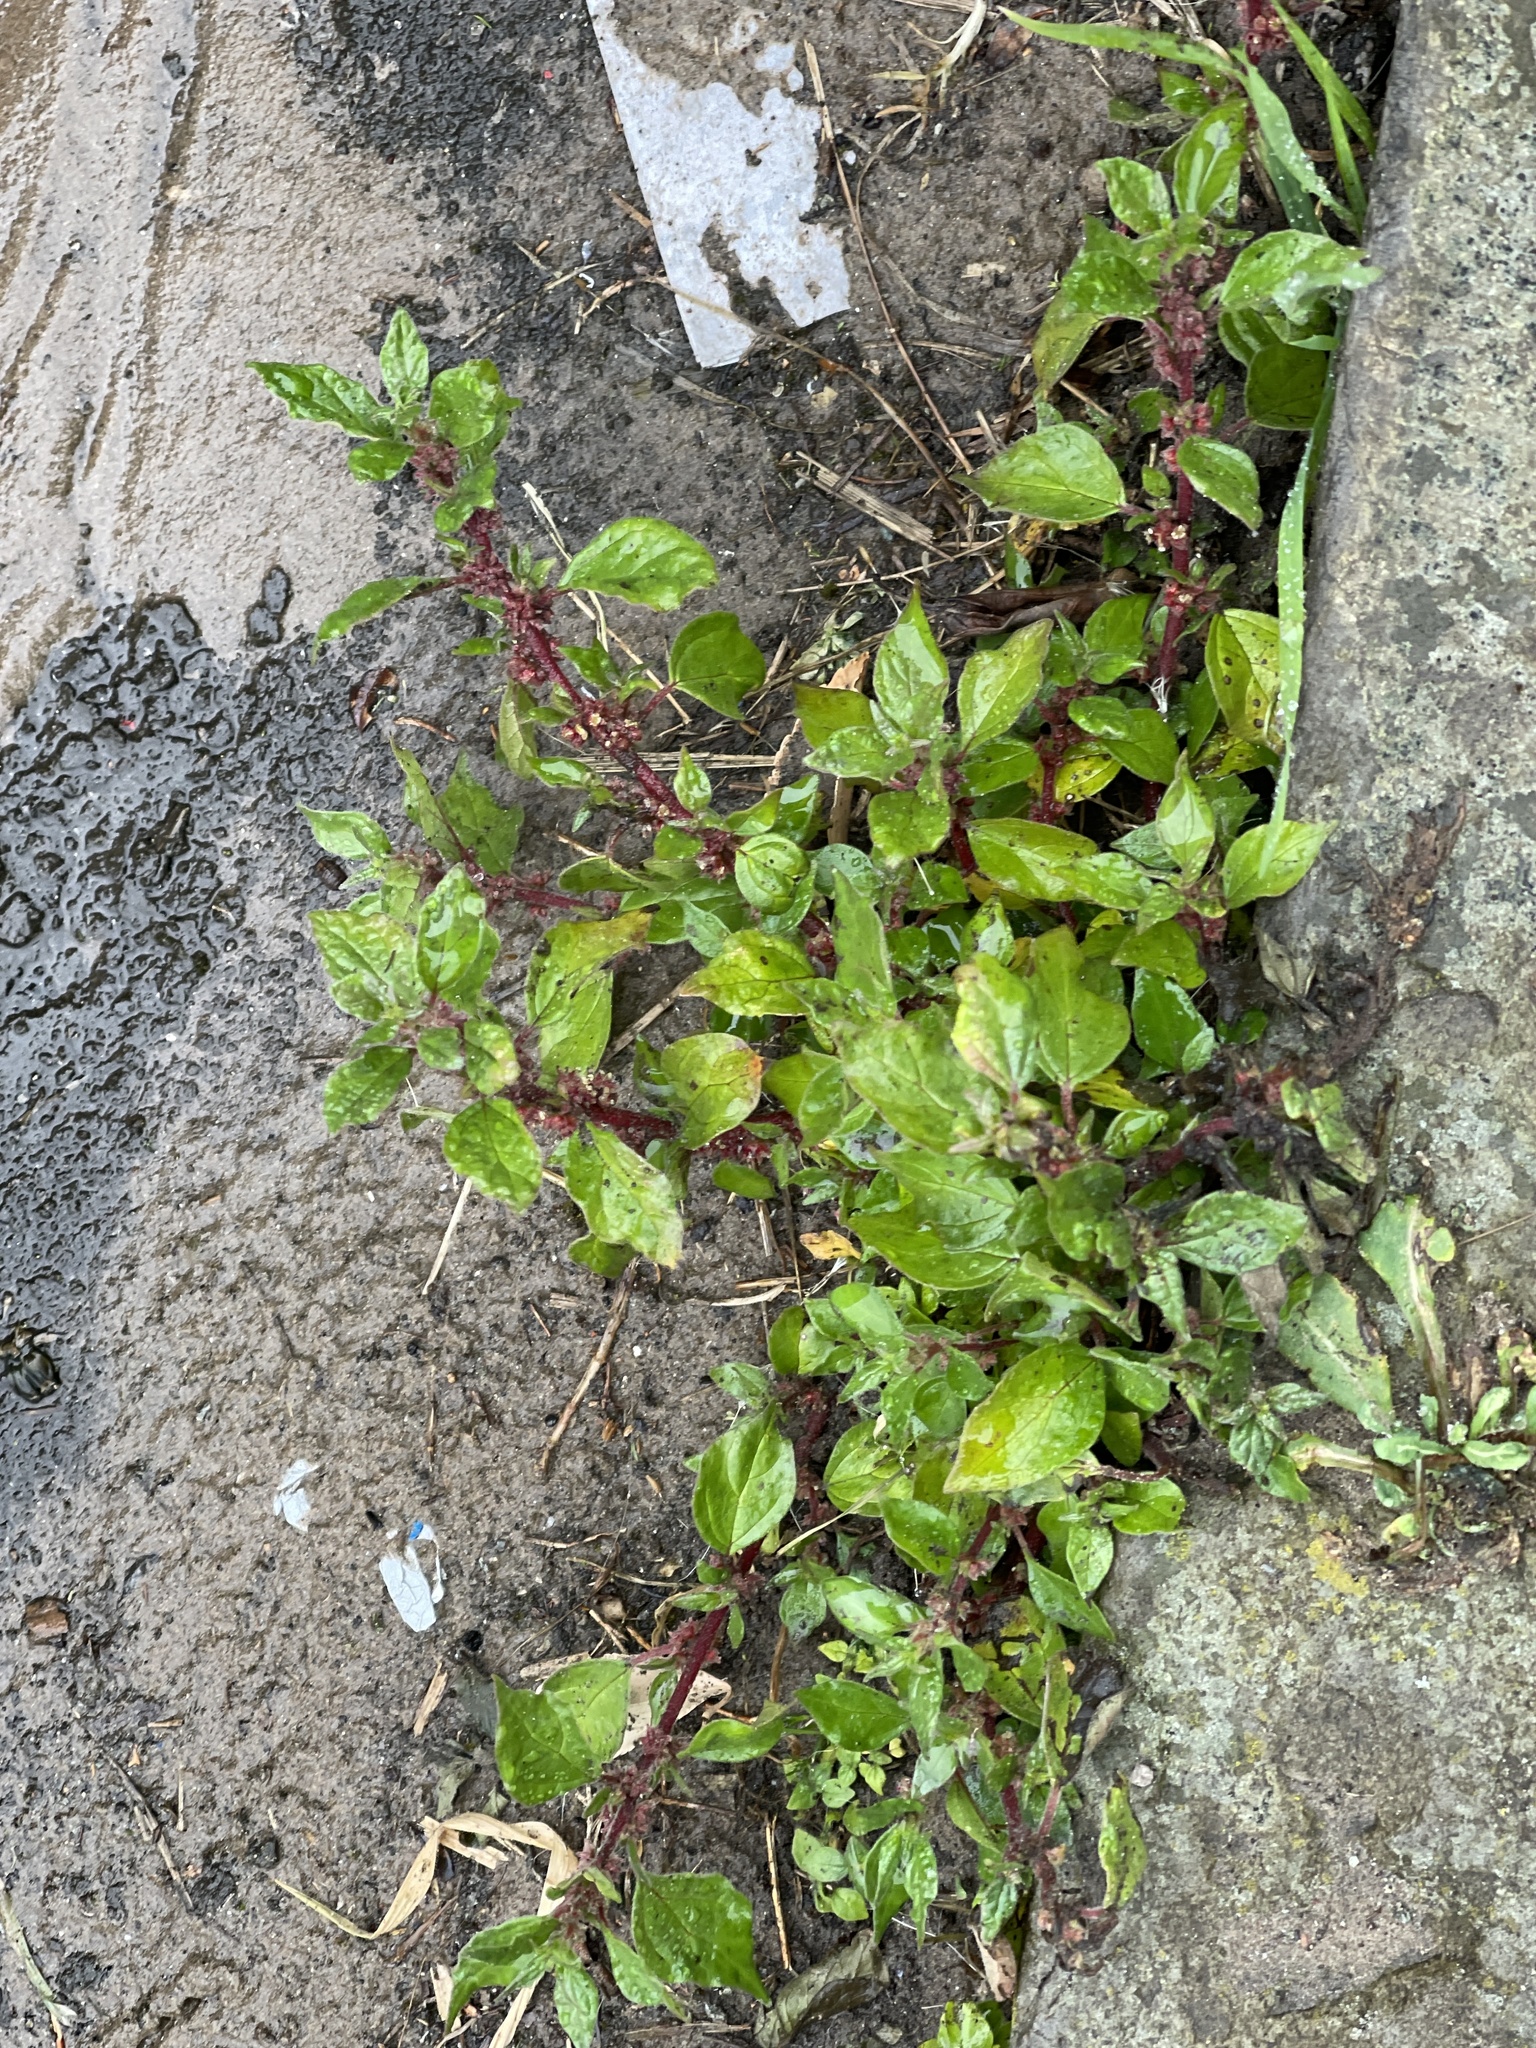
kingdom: Plantae
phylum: Tracheophyta
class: Magnoliopsida
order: Rosales
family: Urticaceae
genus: Parietaria
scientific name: Parietaria judaica
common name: Pellitory-of-the-wall
